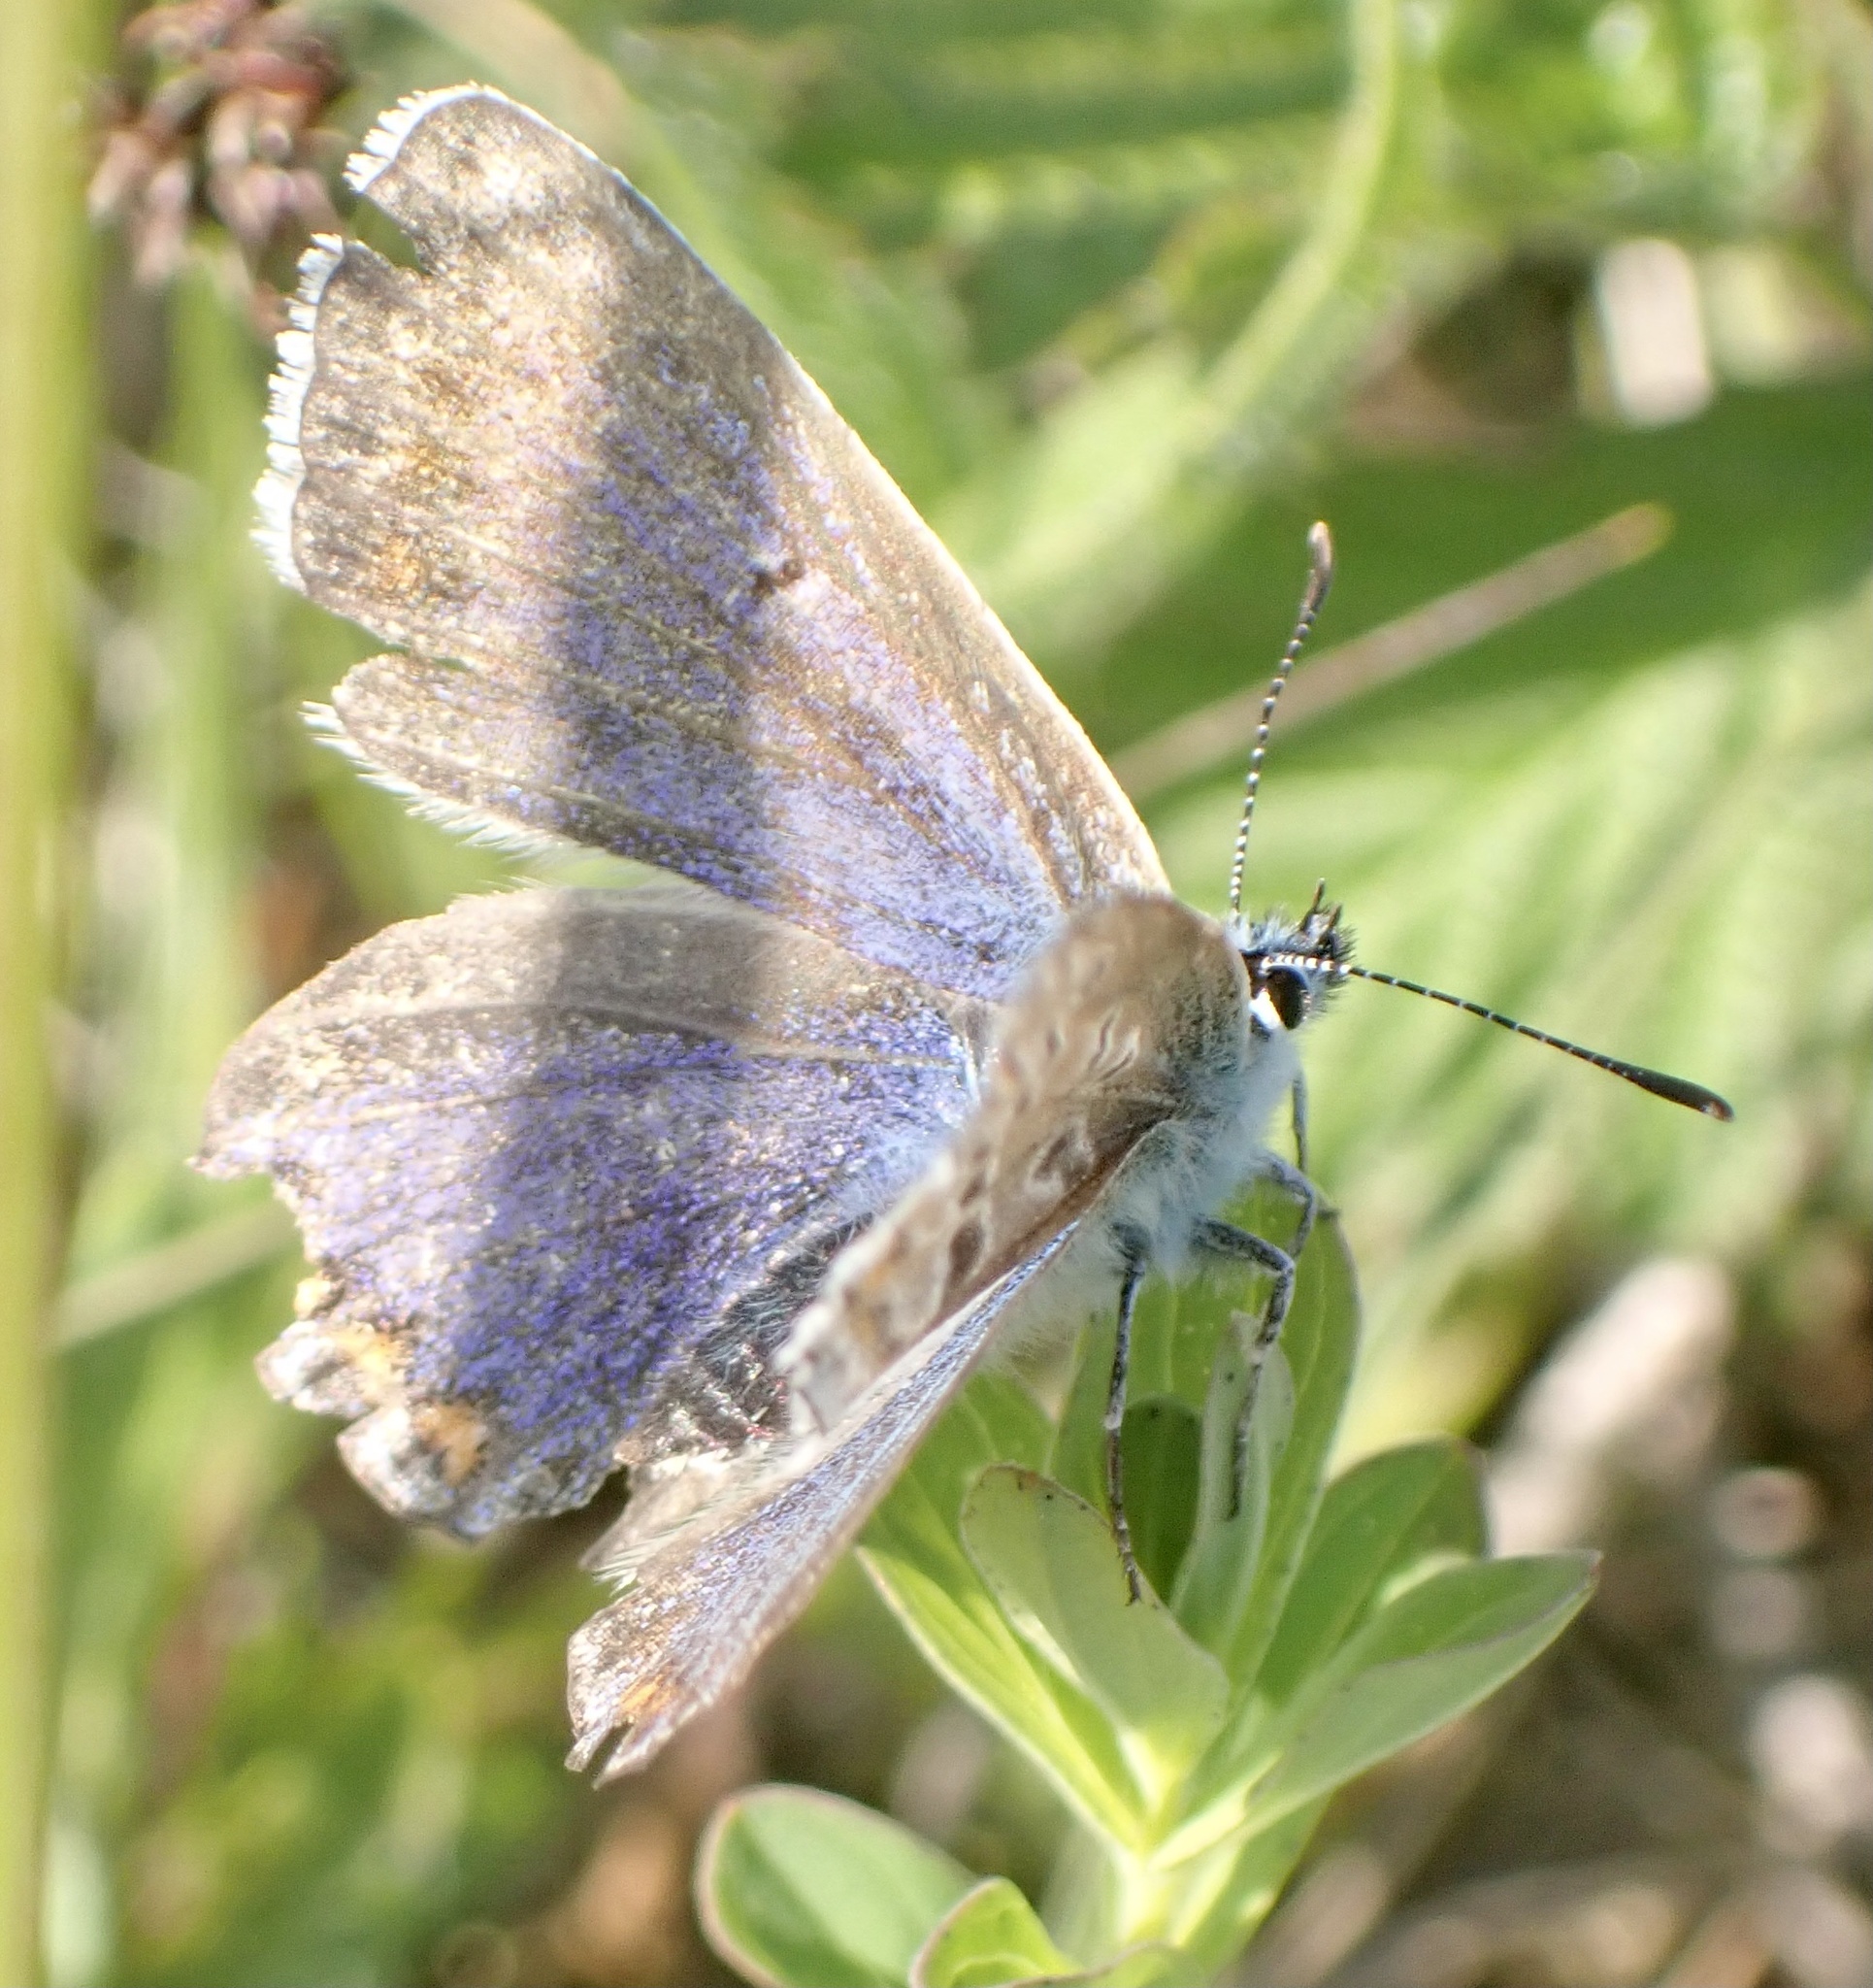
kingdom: Animalia
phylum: Arthropoda
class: Insecta
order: Lepidoptera
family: Lycaenidae
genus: Polyommatus
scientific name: Polyommatus icarus
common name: Common blue
